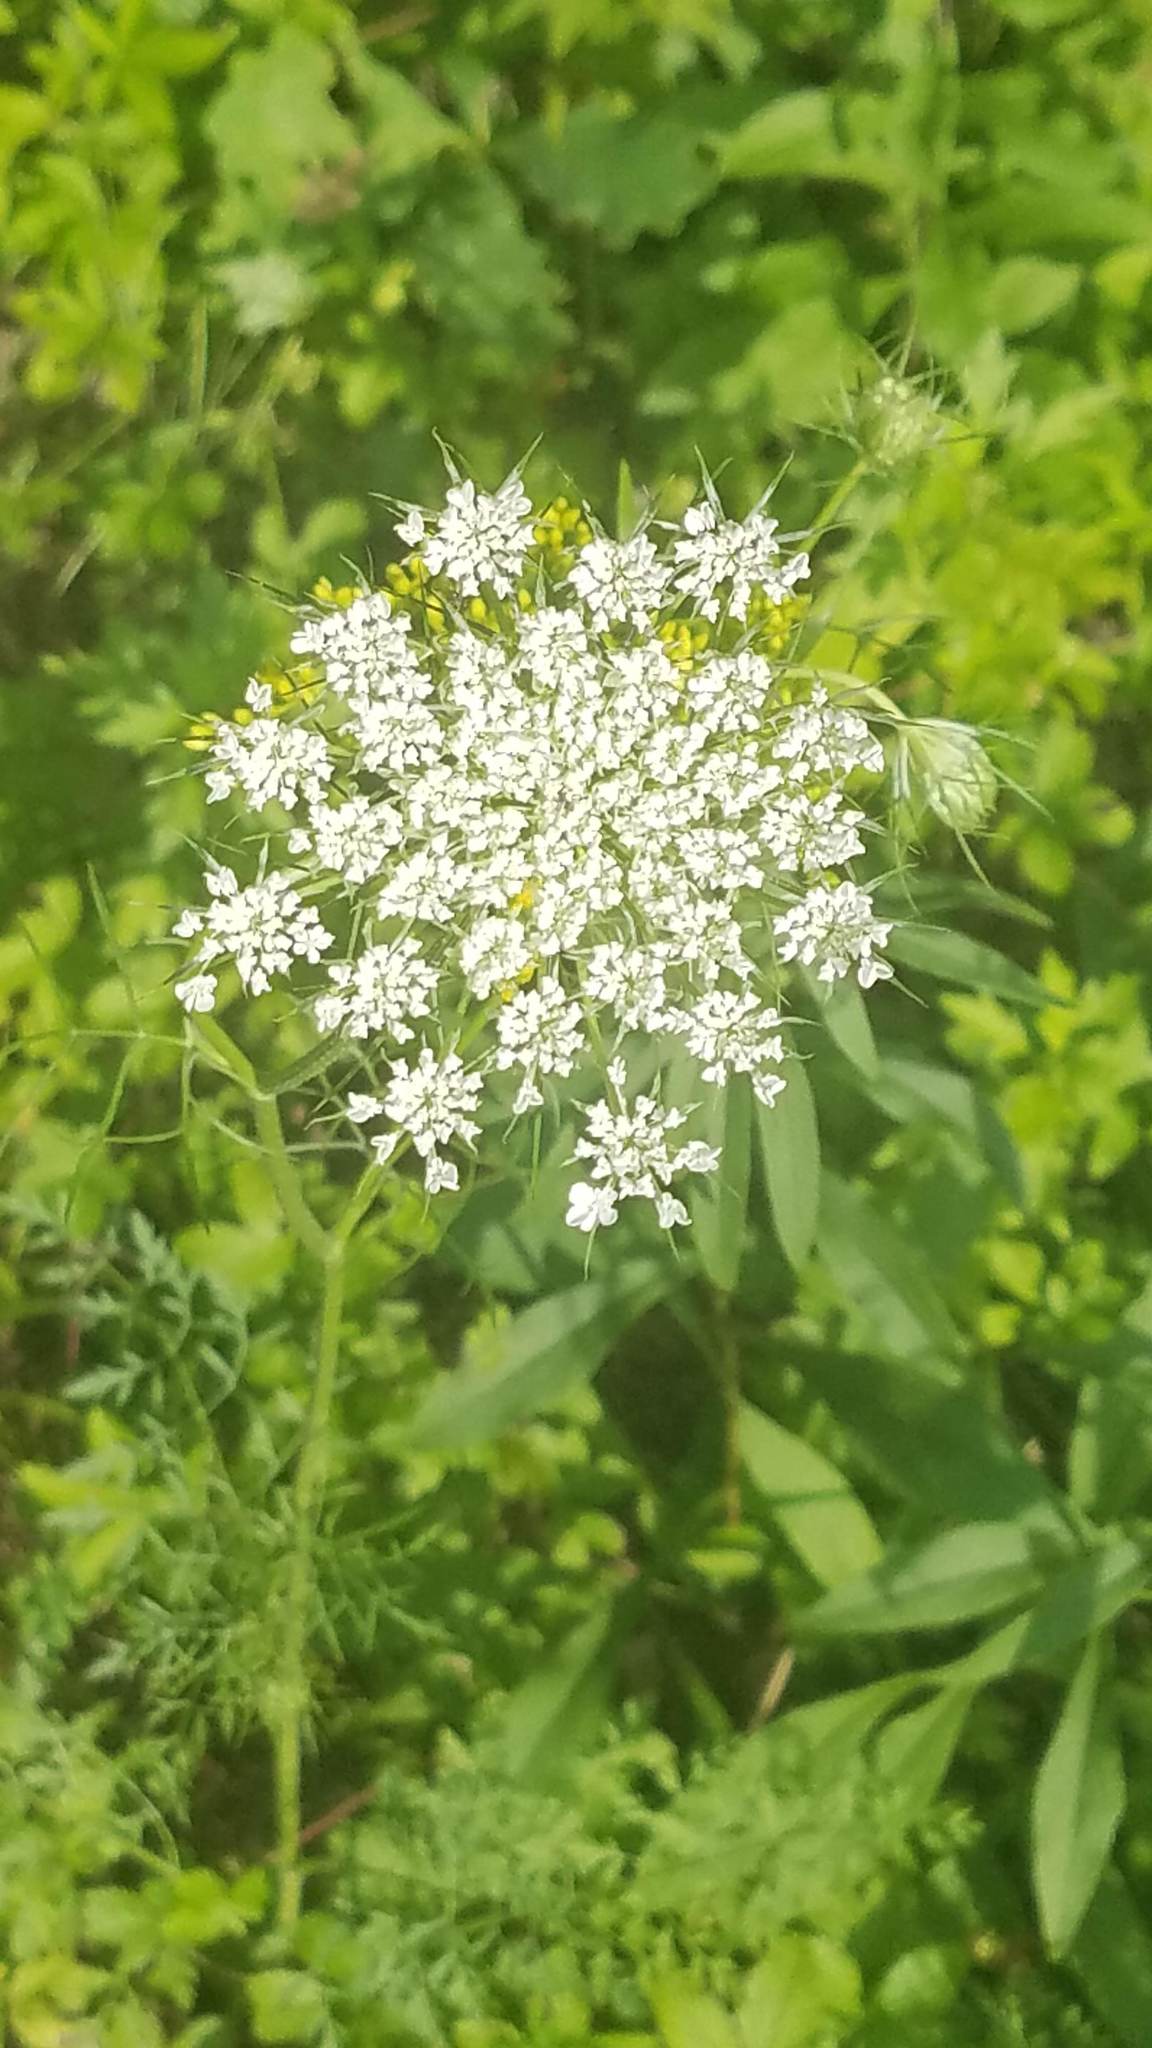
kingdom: Plantae
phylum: Tracheophyta
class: Magnoliopsida
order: Apiales
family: Apiaceae
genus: Daucus
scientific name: Daucus carota
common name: Wild carrot
